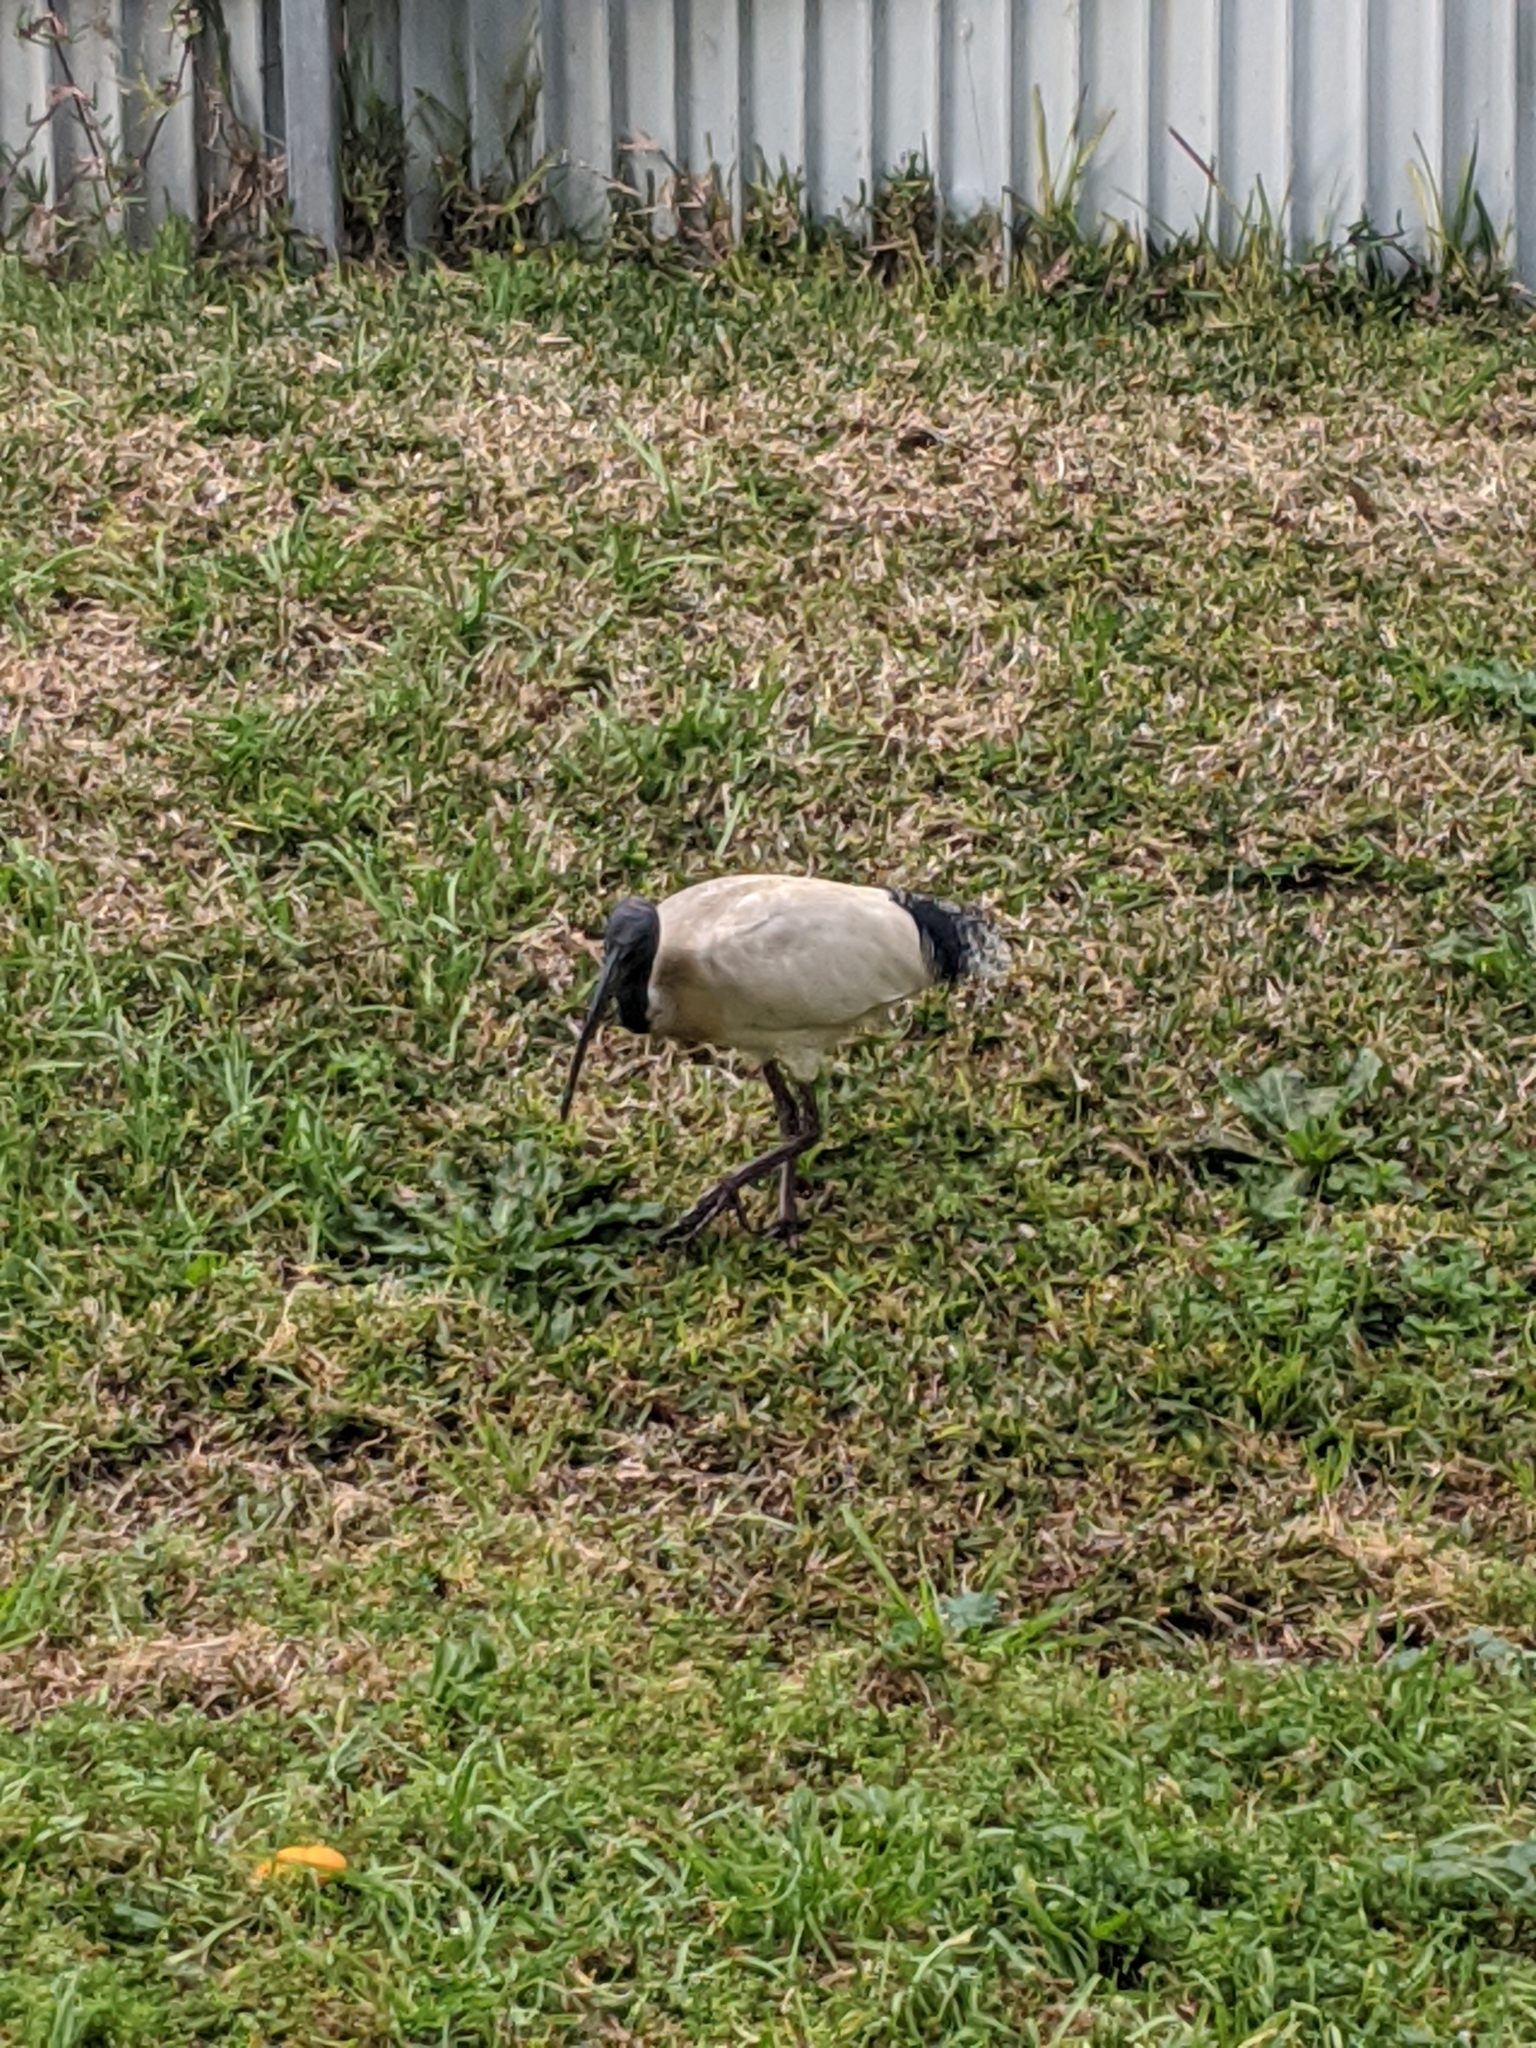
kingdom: Animalia
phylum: Chordata
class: Aves
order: Pelecaniformes
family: Threskiornithidae
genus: Threskiornis
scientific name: Threskiornis molucca
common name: Australian white ibis
